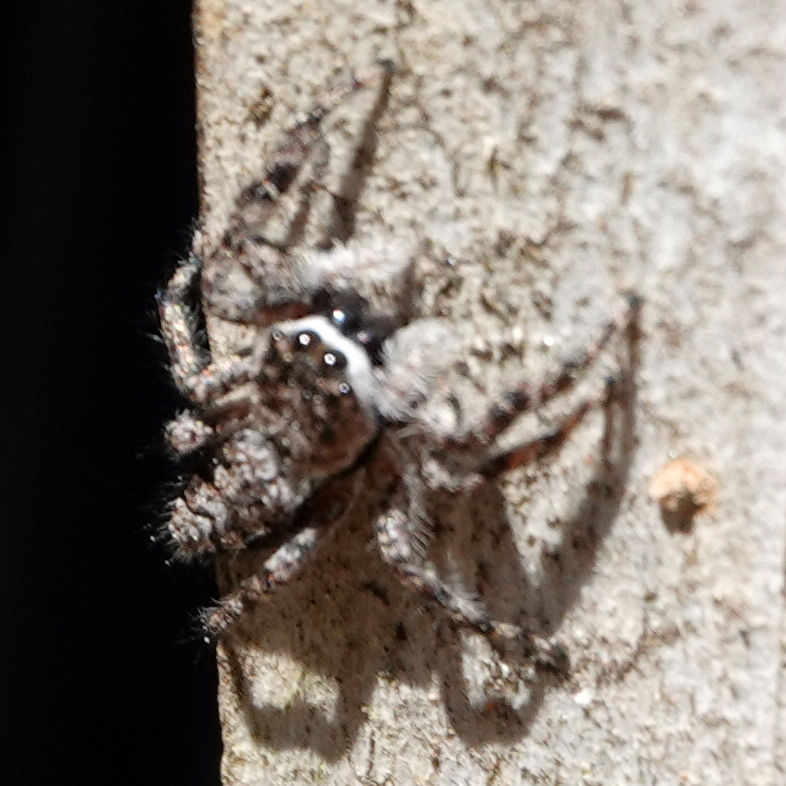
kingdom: Animalia
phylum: Arthropoda
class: Arachnida
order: Araneae
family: Salticidae
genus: Platycryptus
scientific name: Platycryptus undatus
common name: Tan jumping spider
